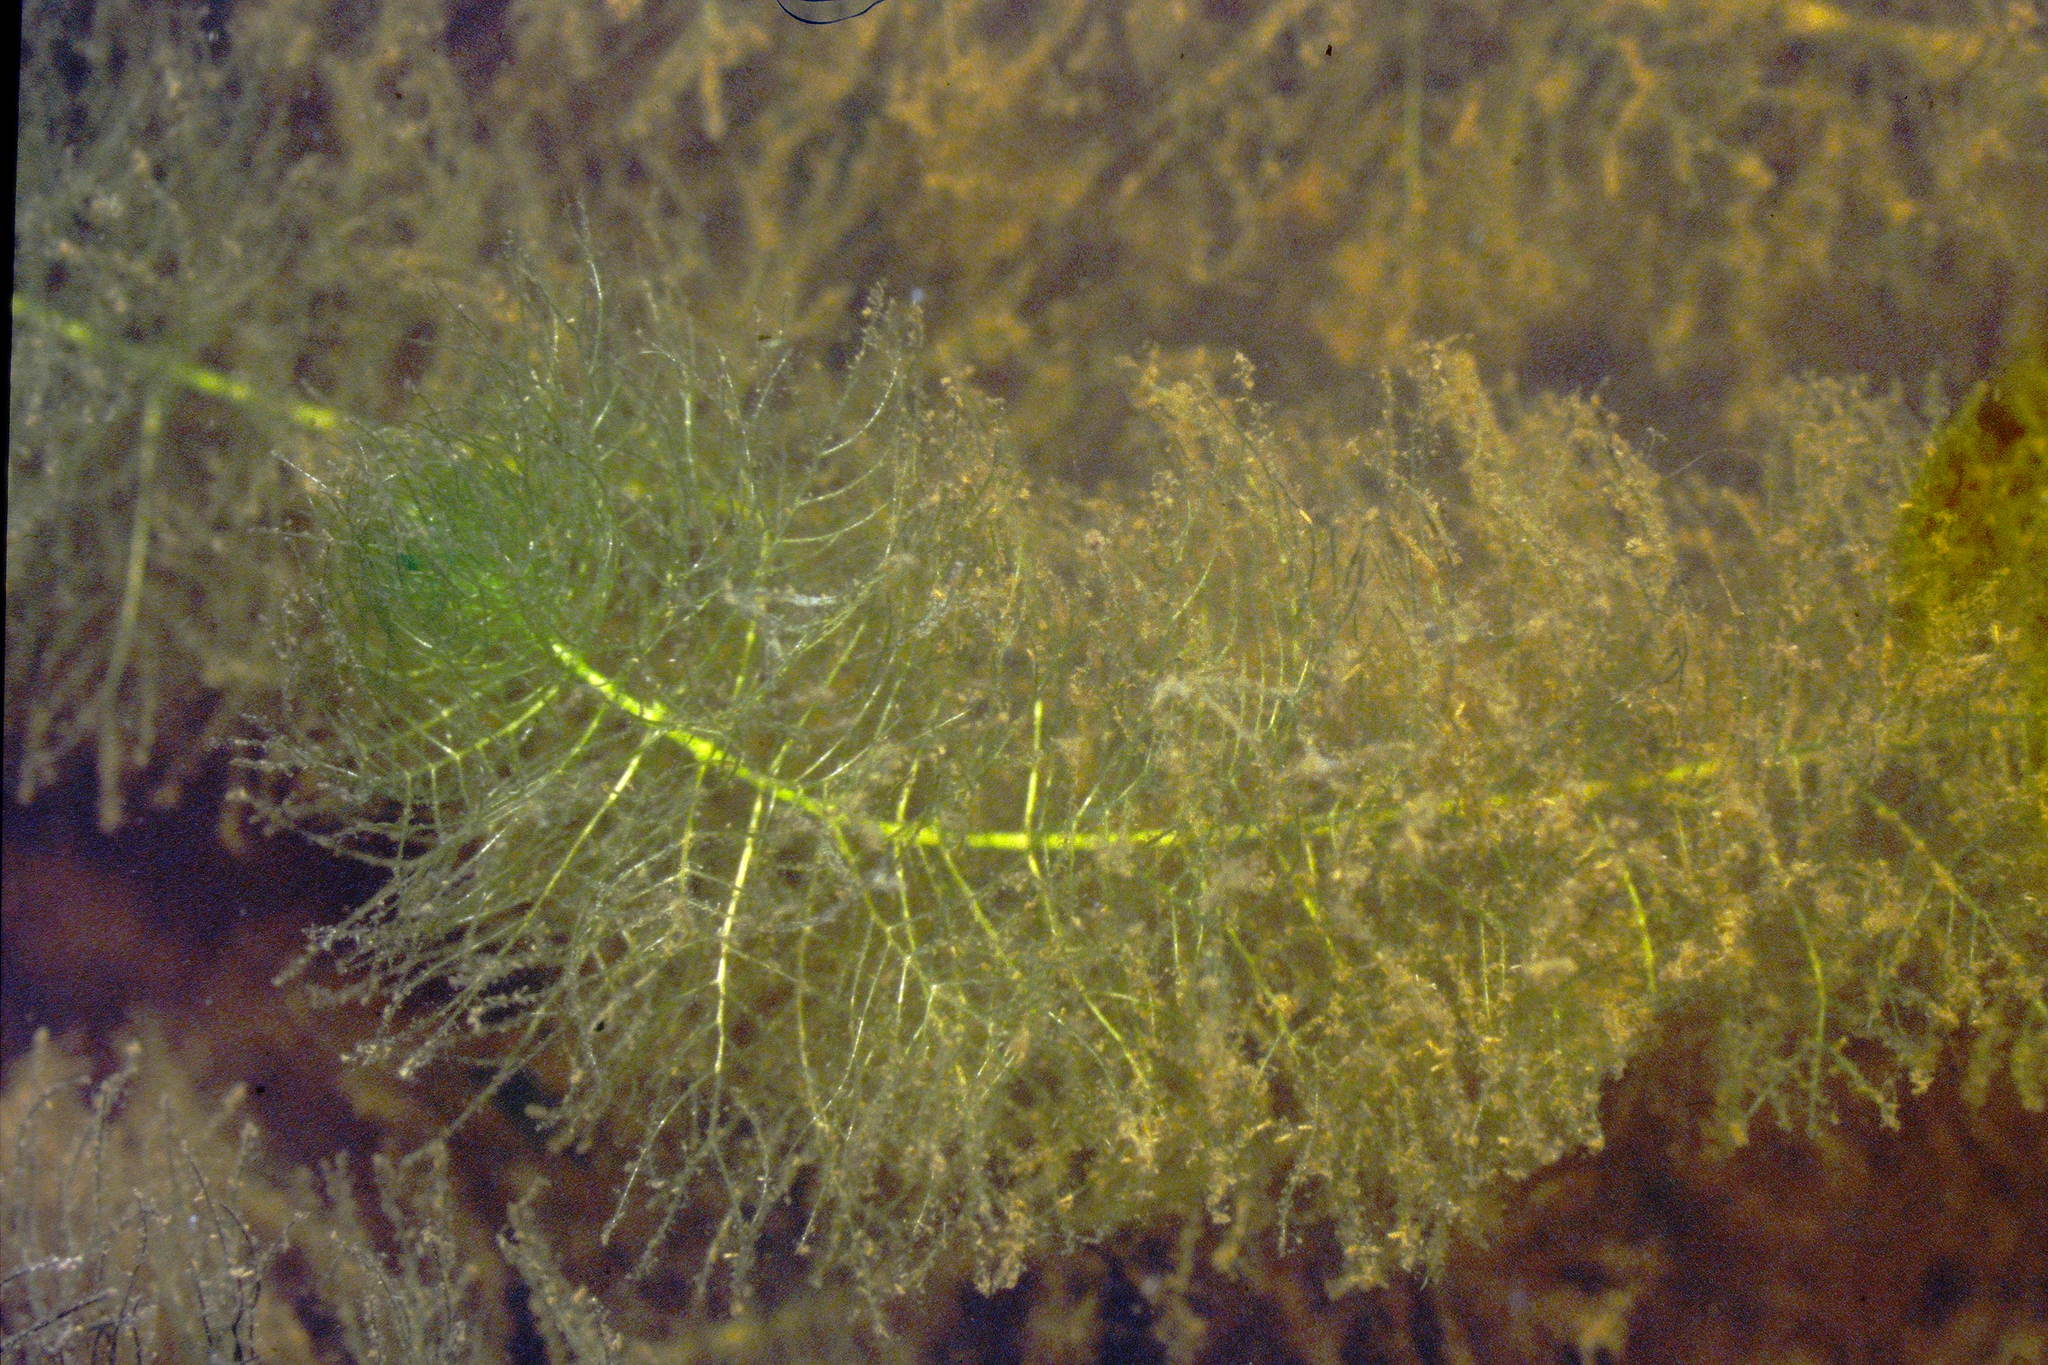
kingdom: Plantae
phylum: Tracheophyta
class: Magnoliopsida
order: Saxifragales
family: Haloragaceae
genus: Myriophyllum
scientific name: Myriophyllum verticillatum
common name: Whorled water-milfoil
